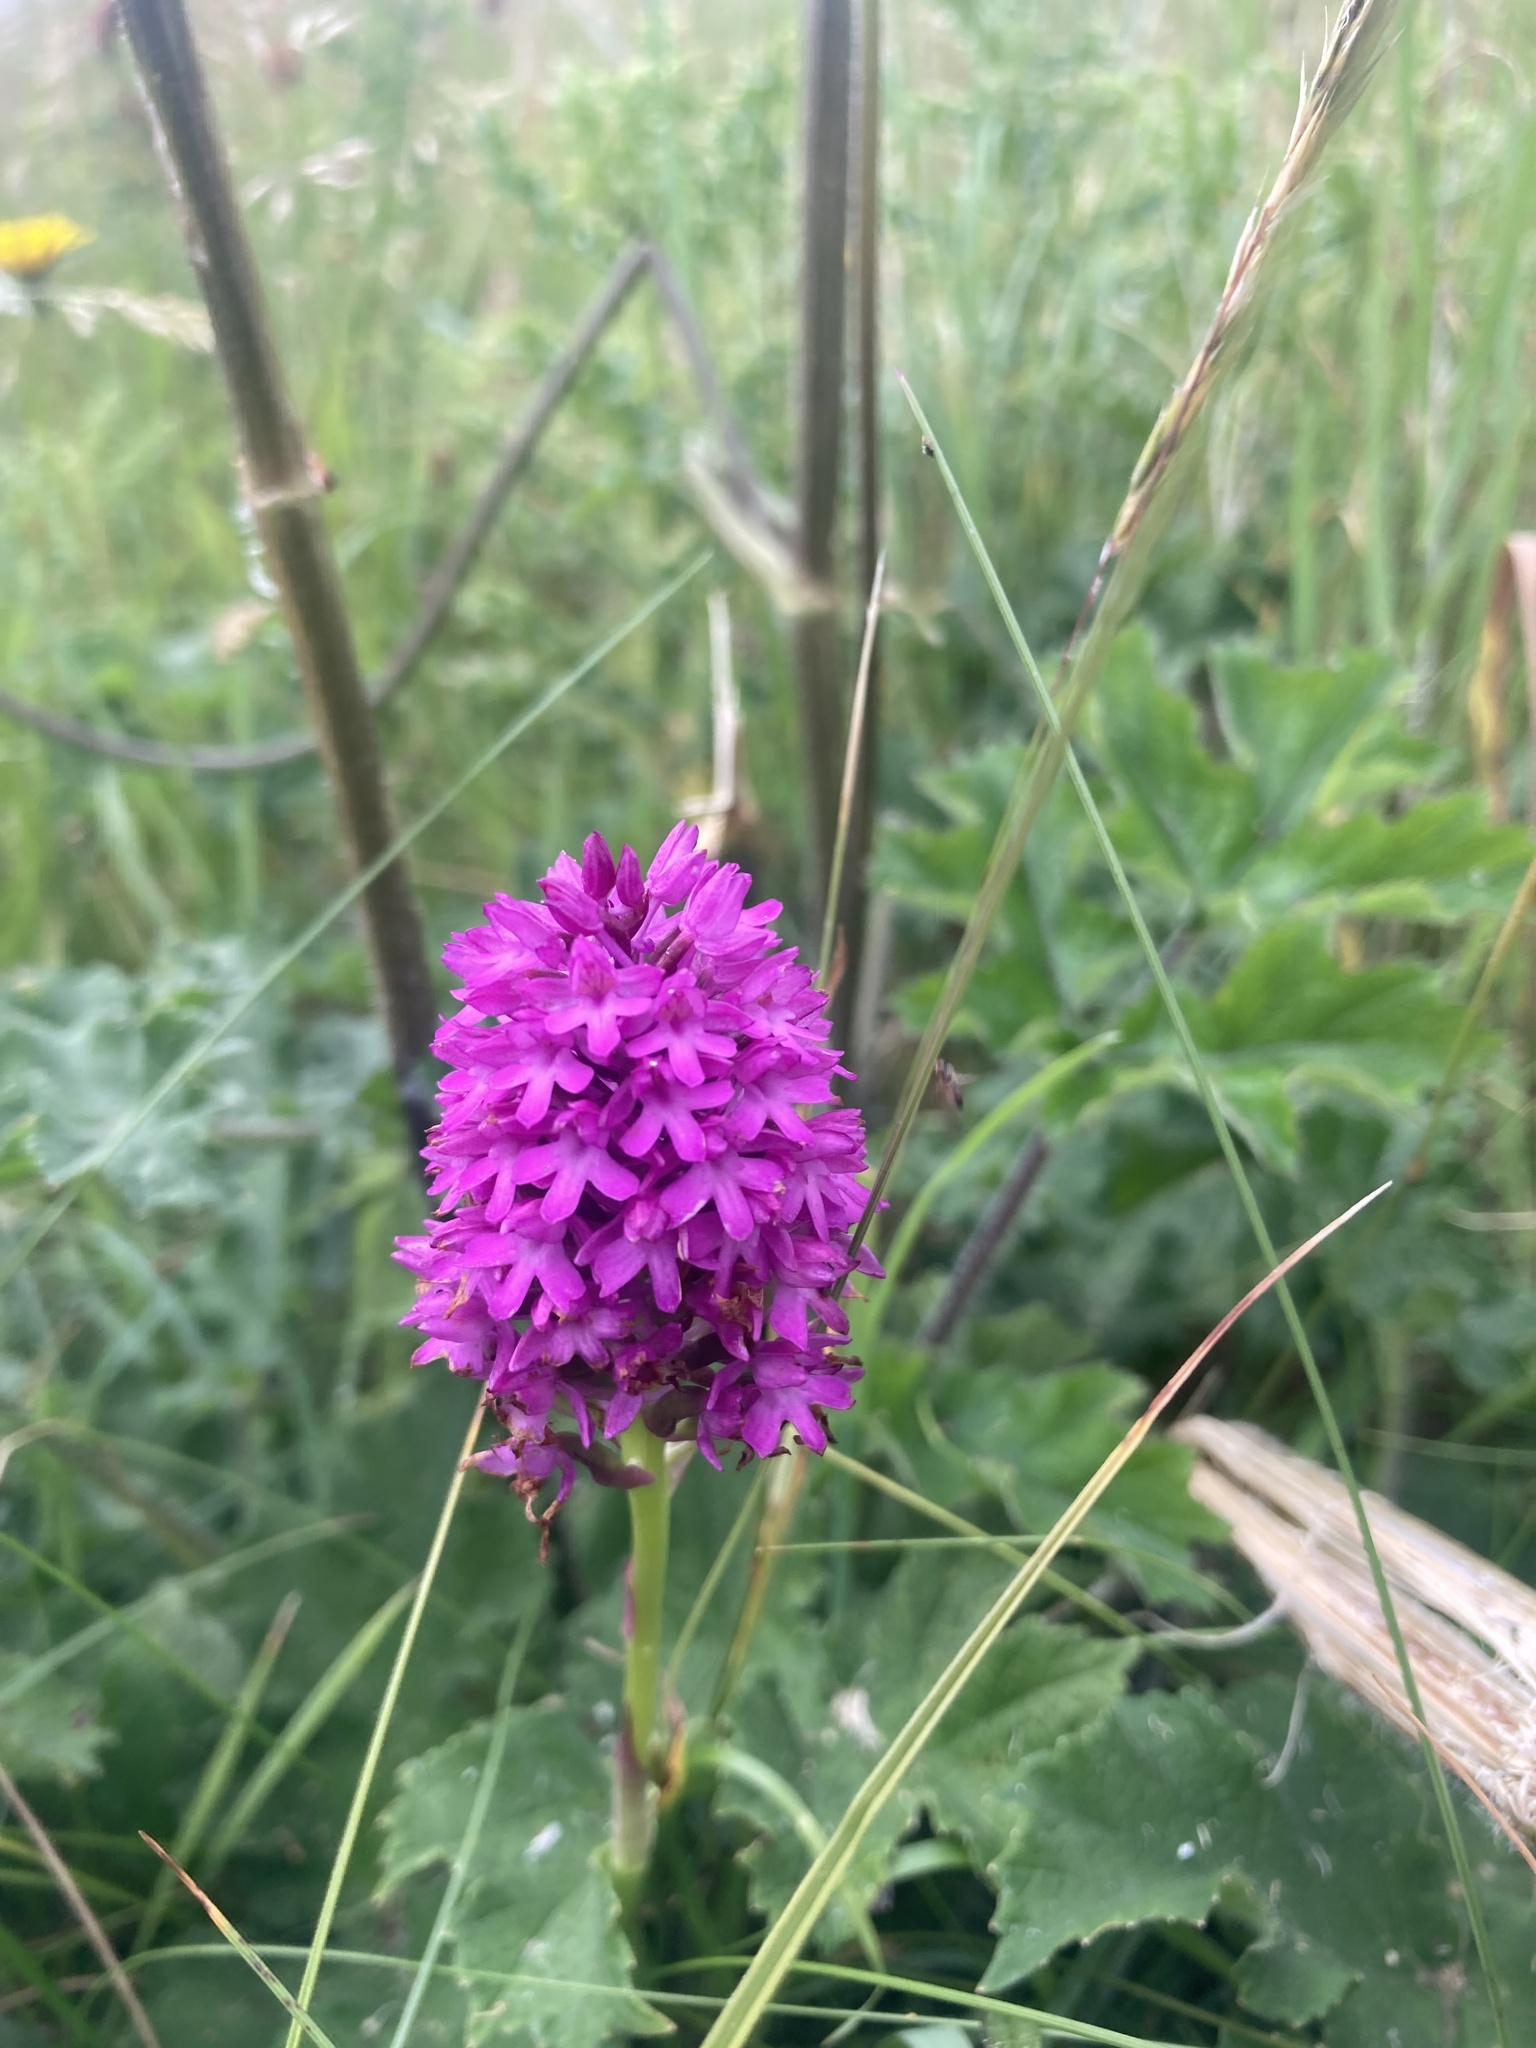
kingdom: Plantae
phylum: Tracheophyta
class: Liliopsida
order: Asparagales
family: Orchidaceae
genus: Anacamptis
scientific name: Anacamptis pyramidalis
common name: Pyramidal orchid
